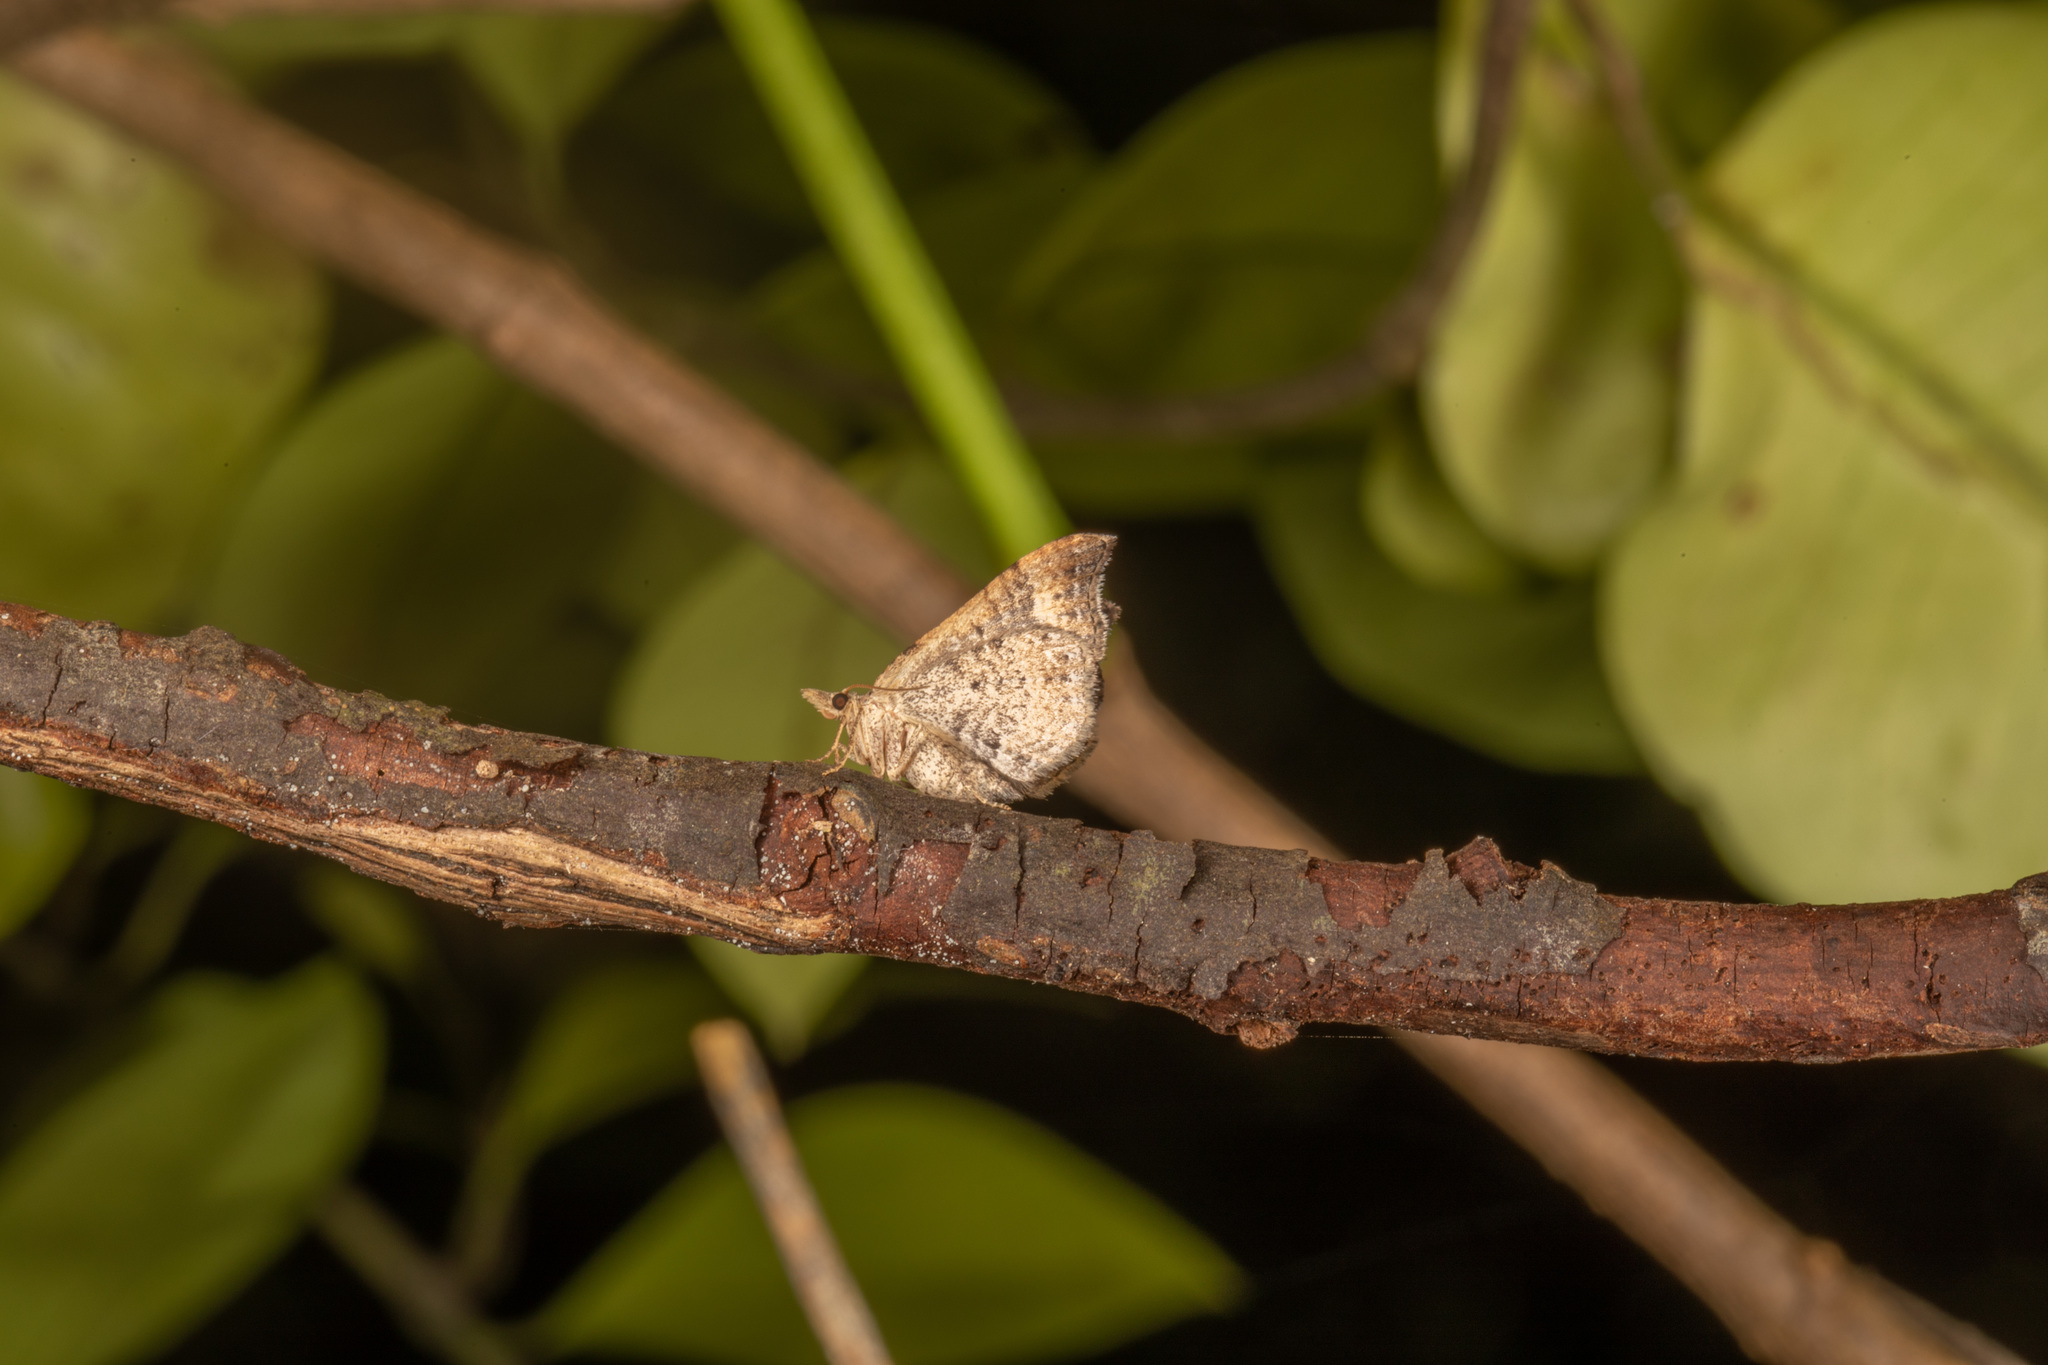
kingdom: Animalia
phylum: Arthropoda
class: Insecta
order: Lepidoptera
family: Geometridae
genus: Homodotis
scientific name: Homodotis megaspilata
